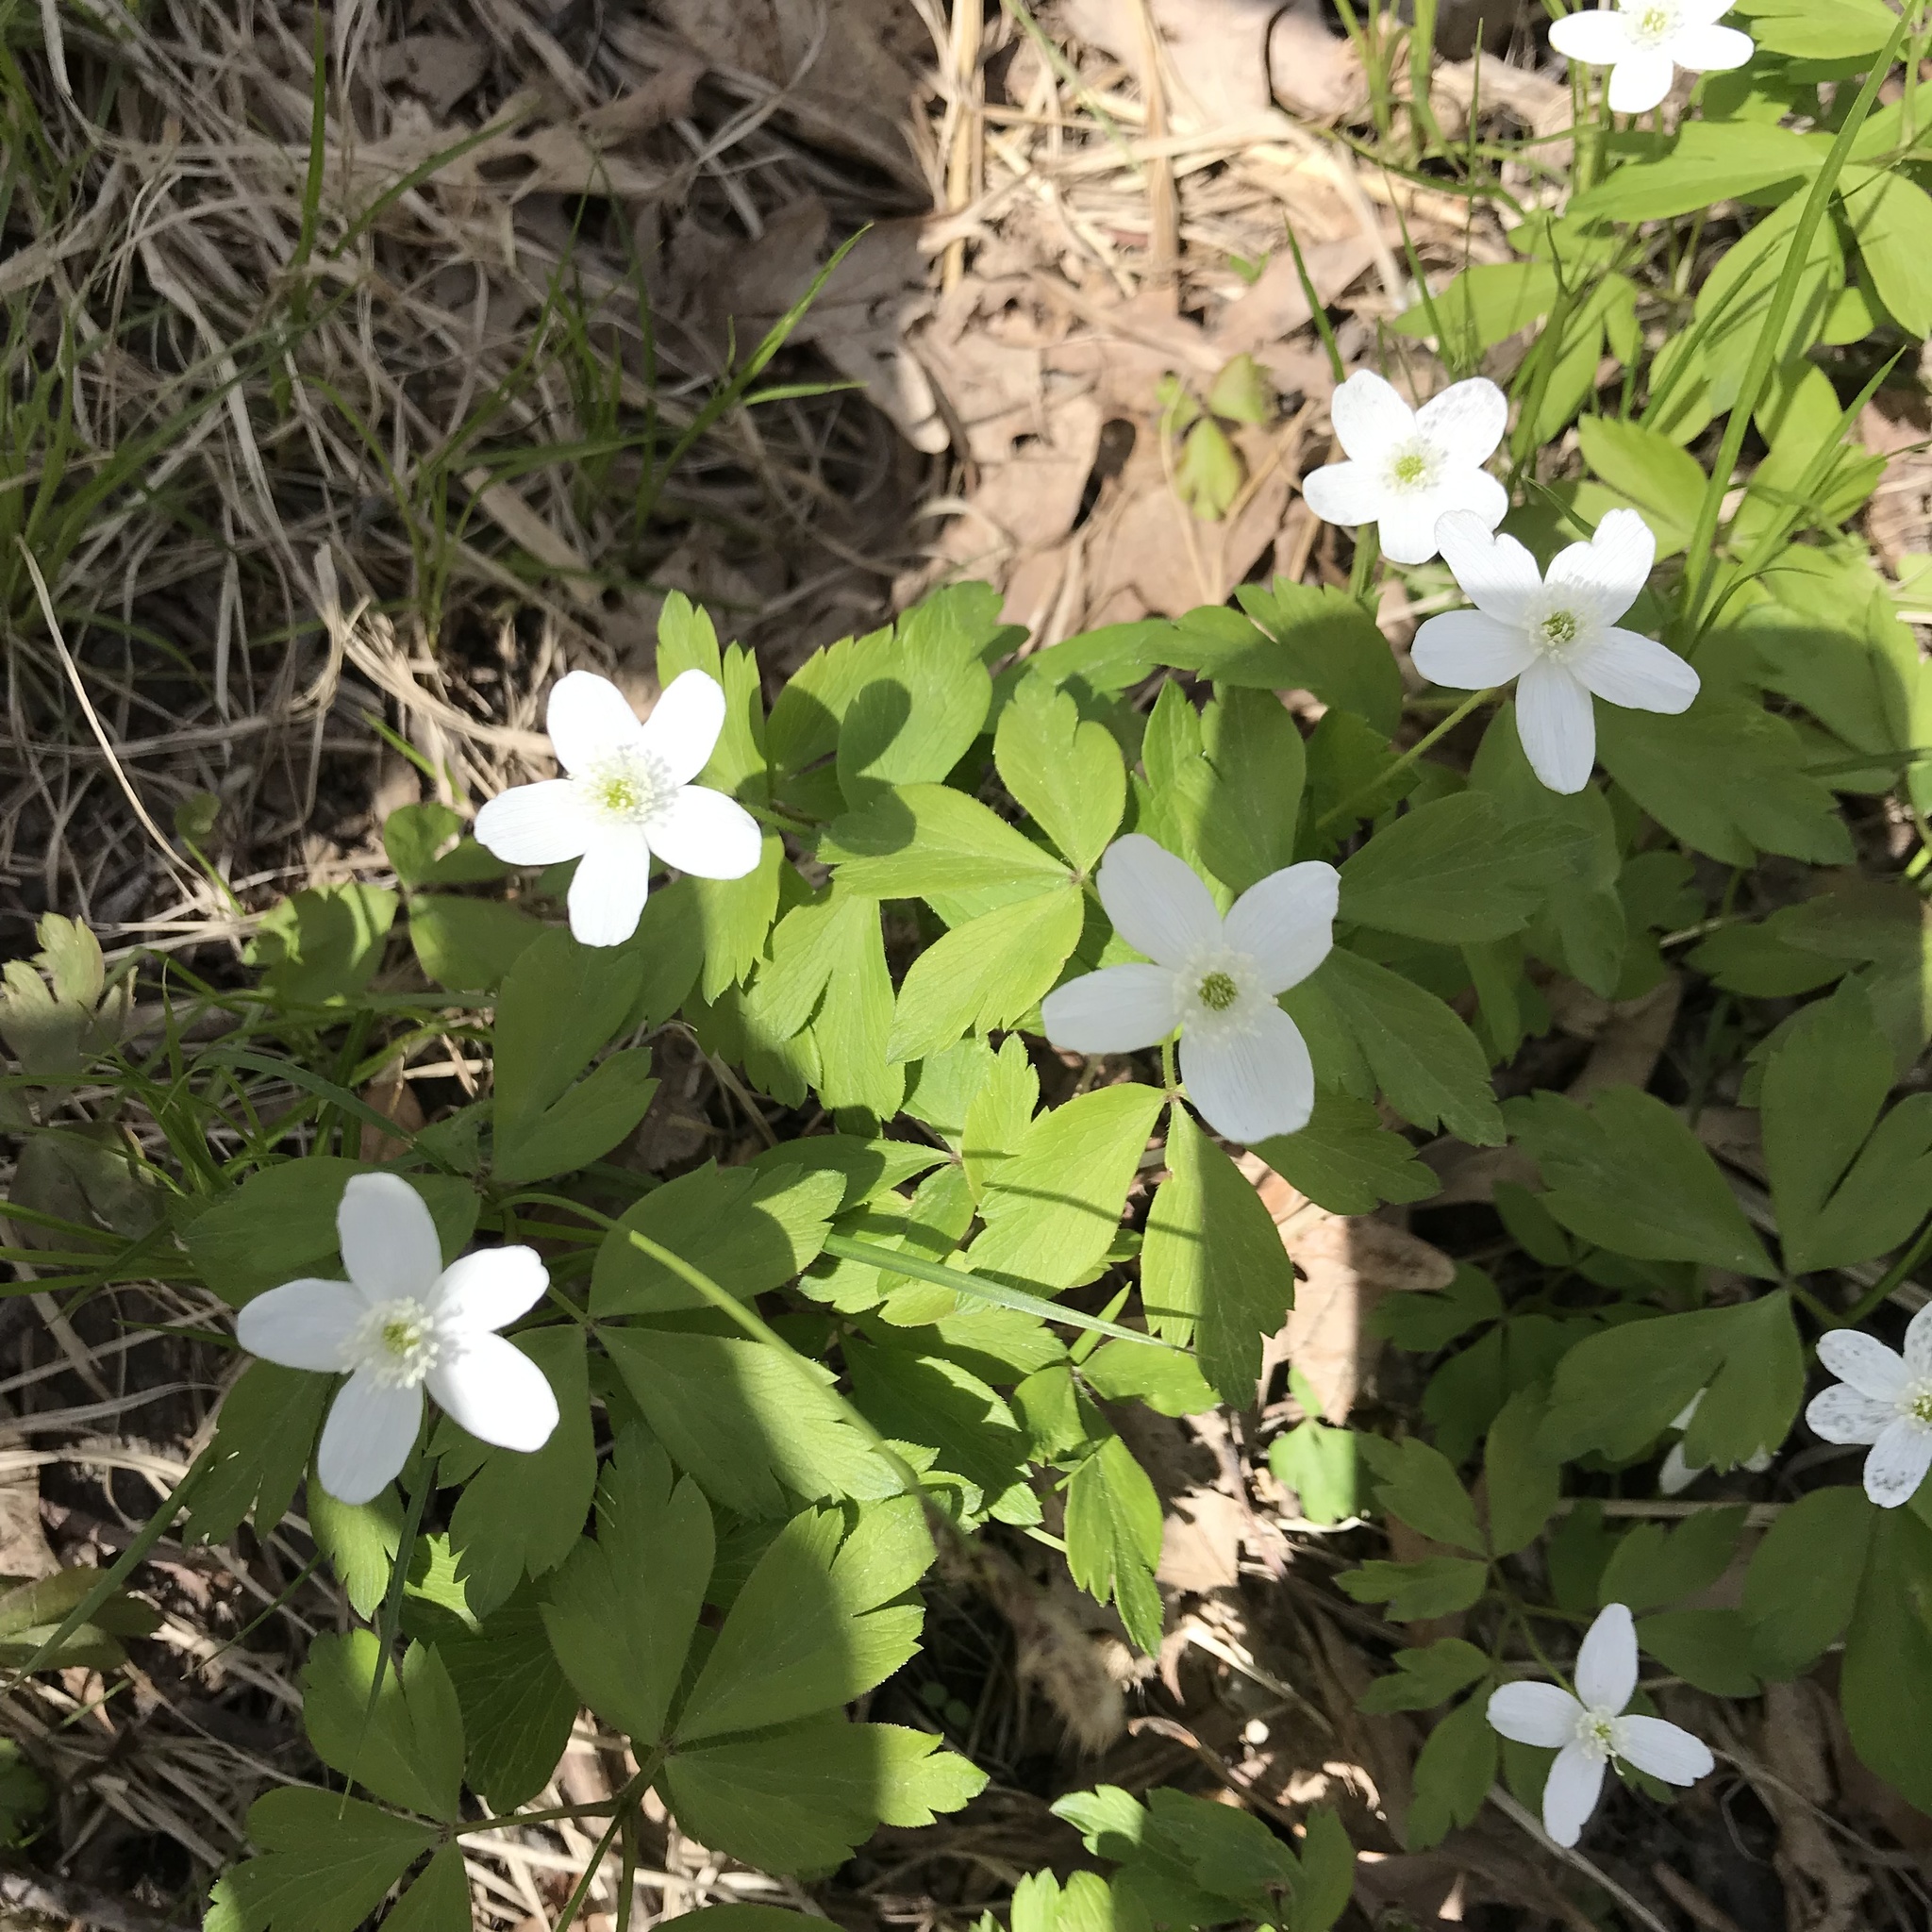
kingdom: Plantae
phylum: Tracheophyta
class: Magnoliopsida
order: Ranunculales
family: Ranunculaceae
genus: Anemone
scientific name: Anemone quinquefolia
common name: Wood anemone
